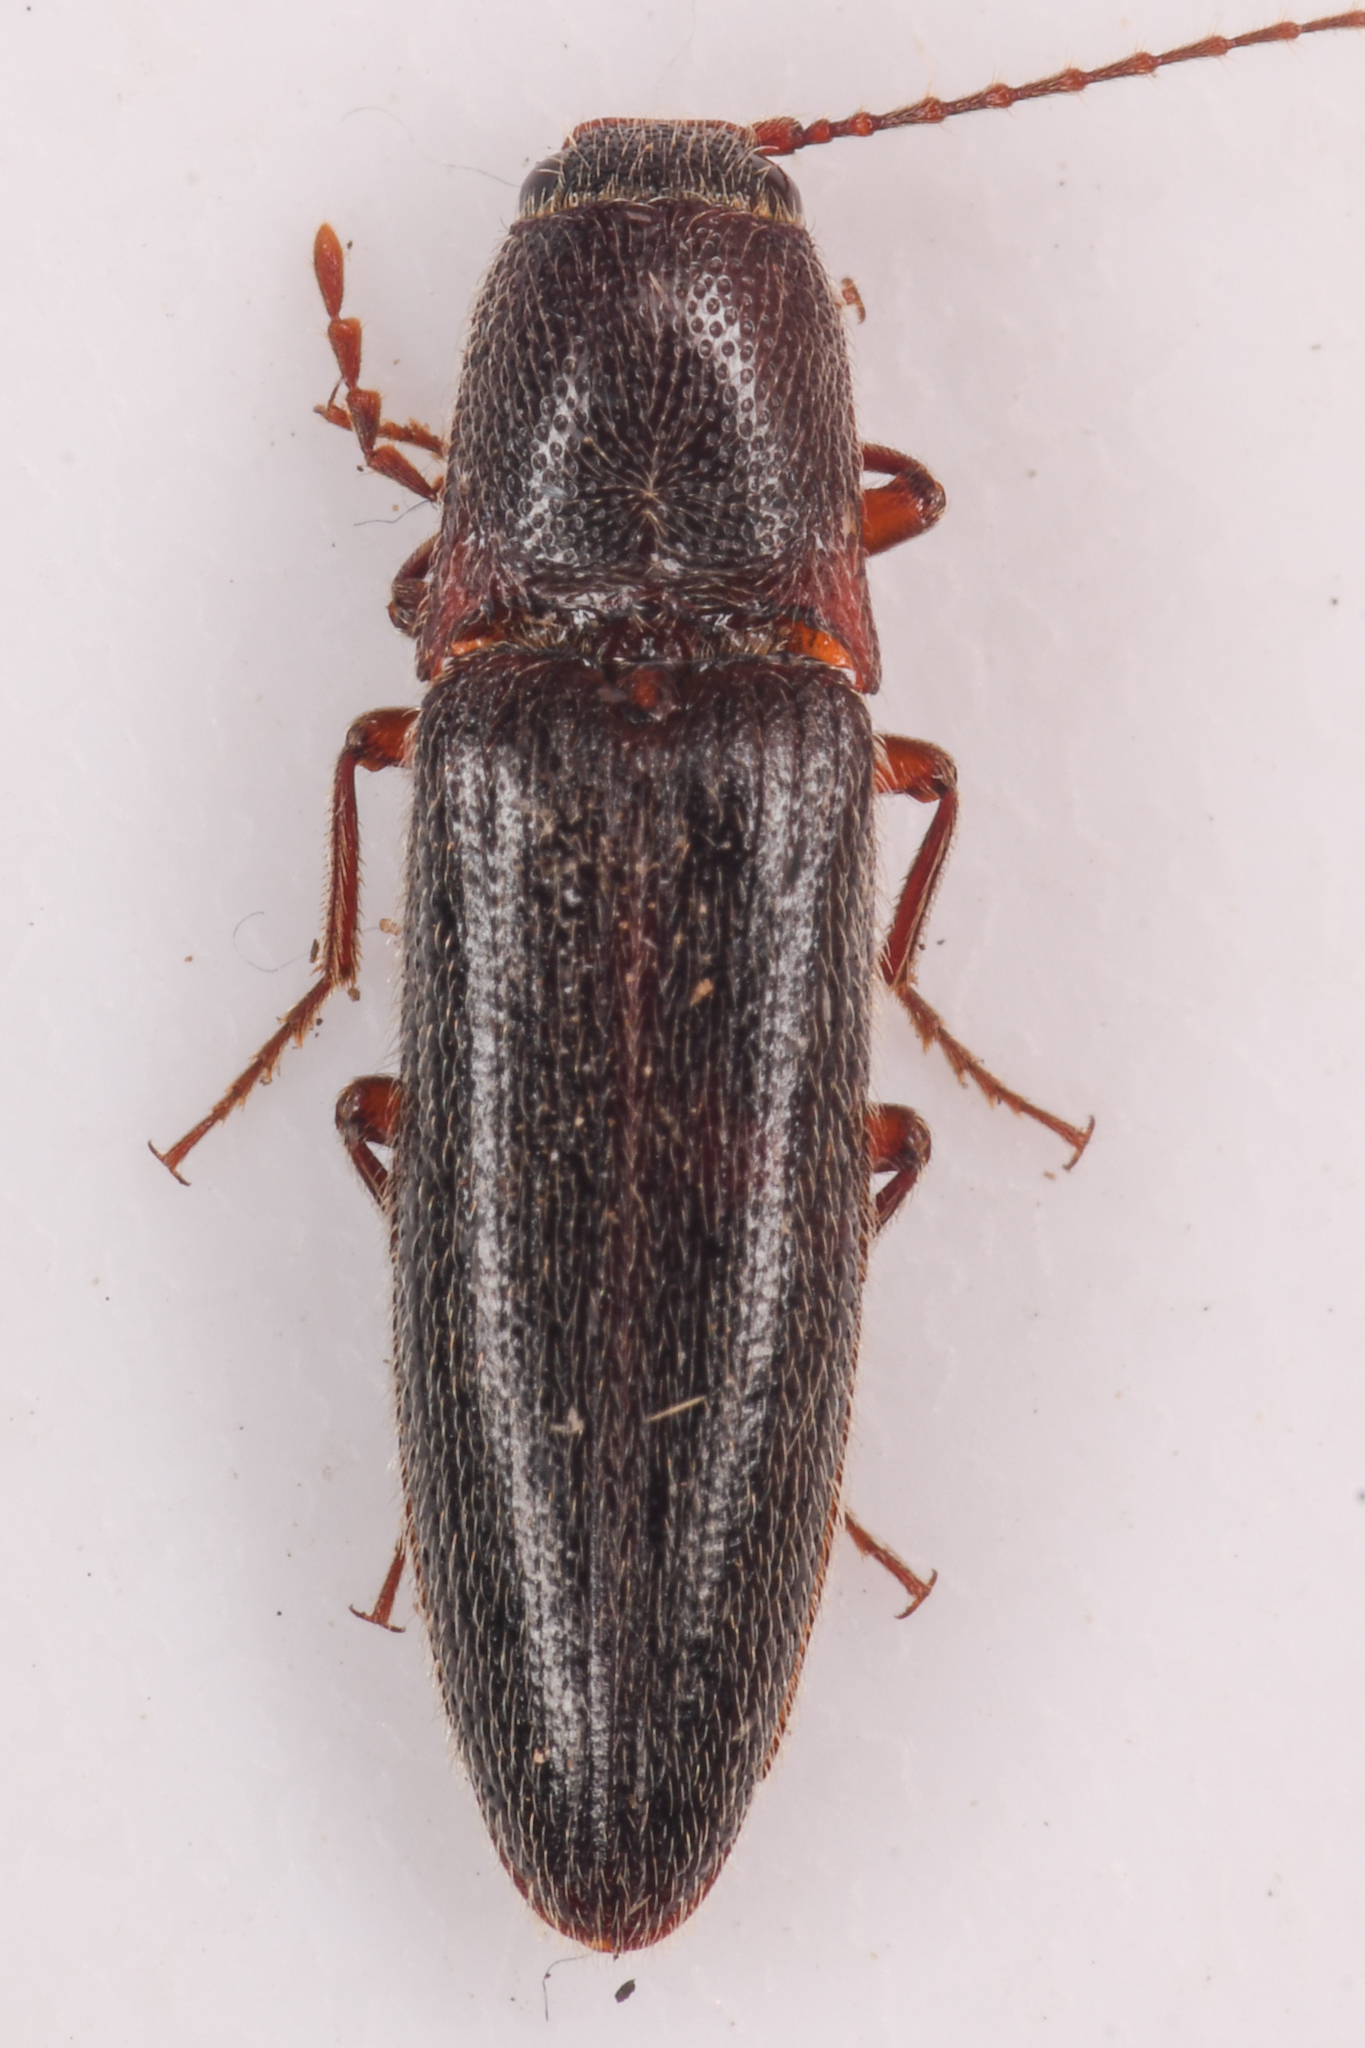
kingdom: Animalia
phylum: Arthropoda
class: Insecta
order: Coleoptera
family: Elateridae
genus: Melanotus
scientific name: Melanotus longulus
